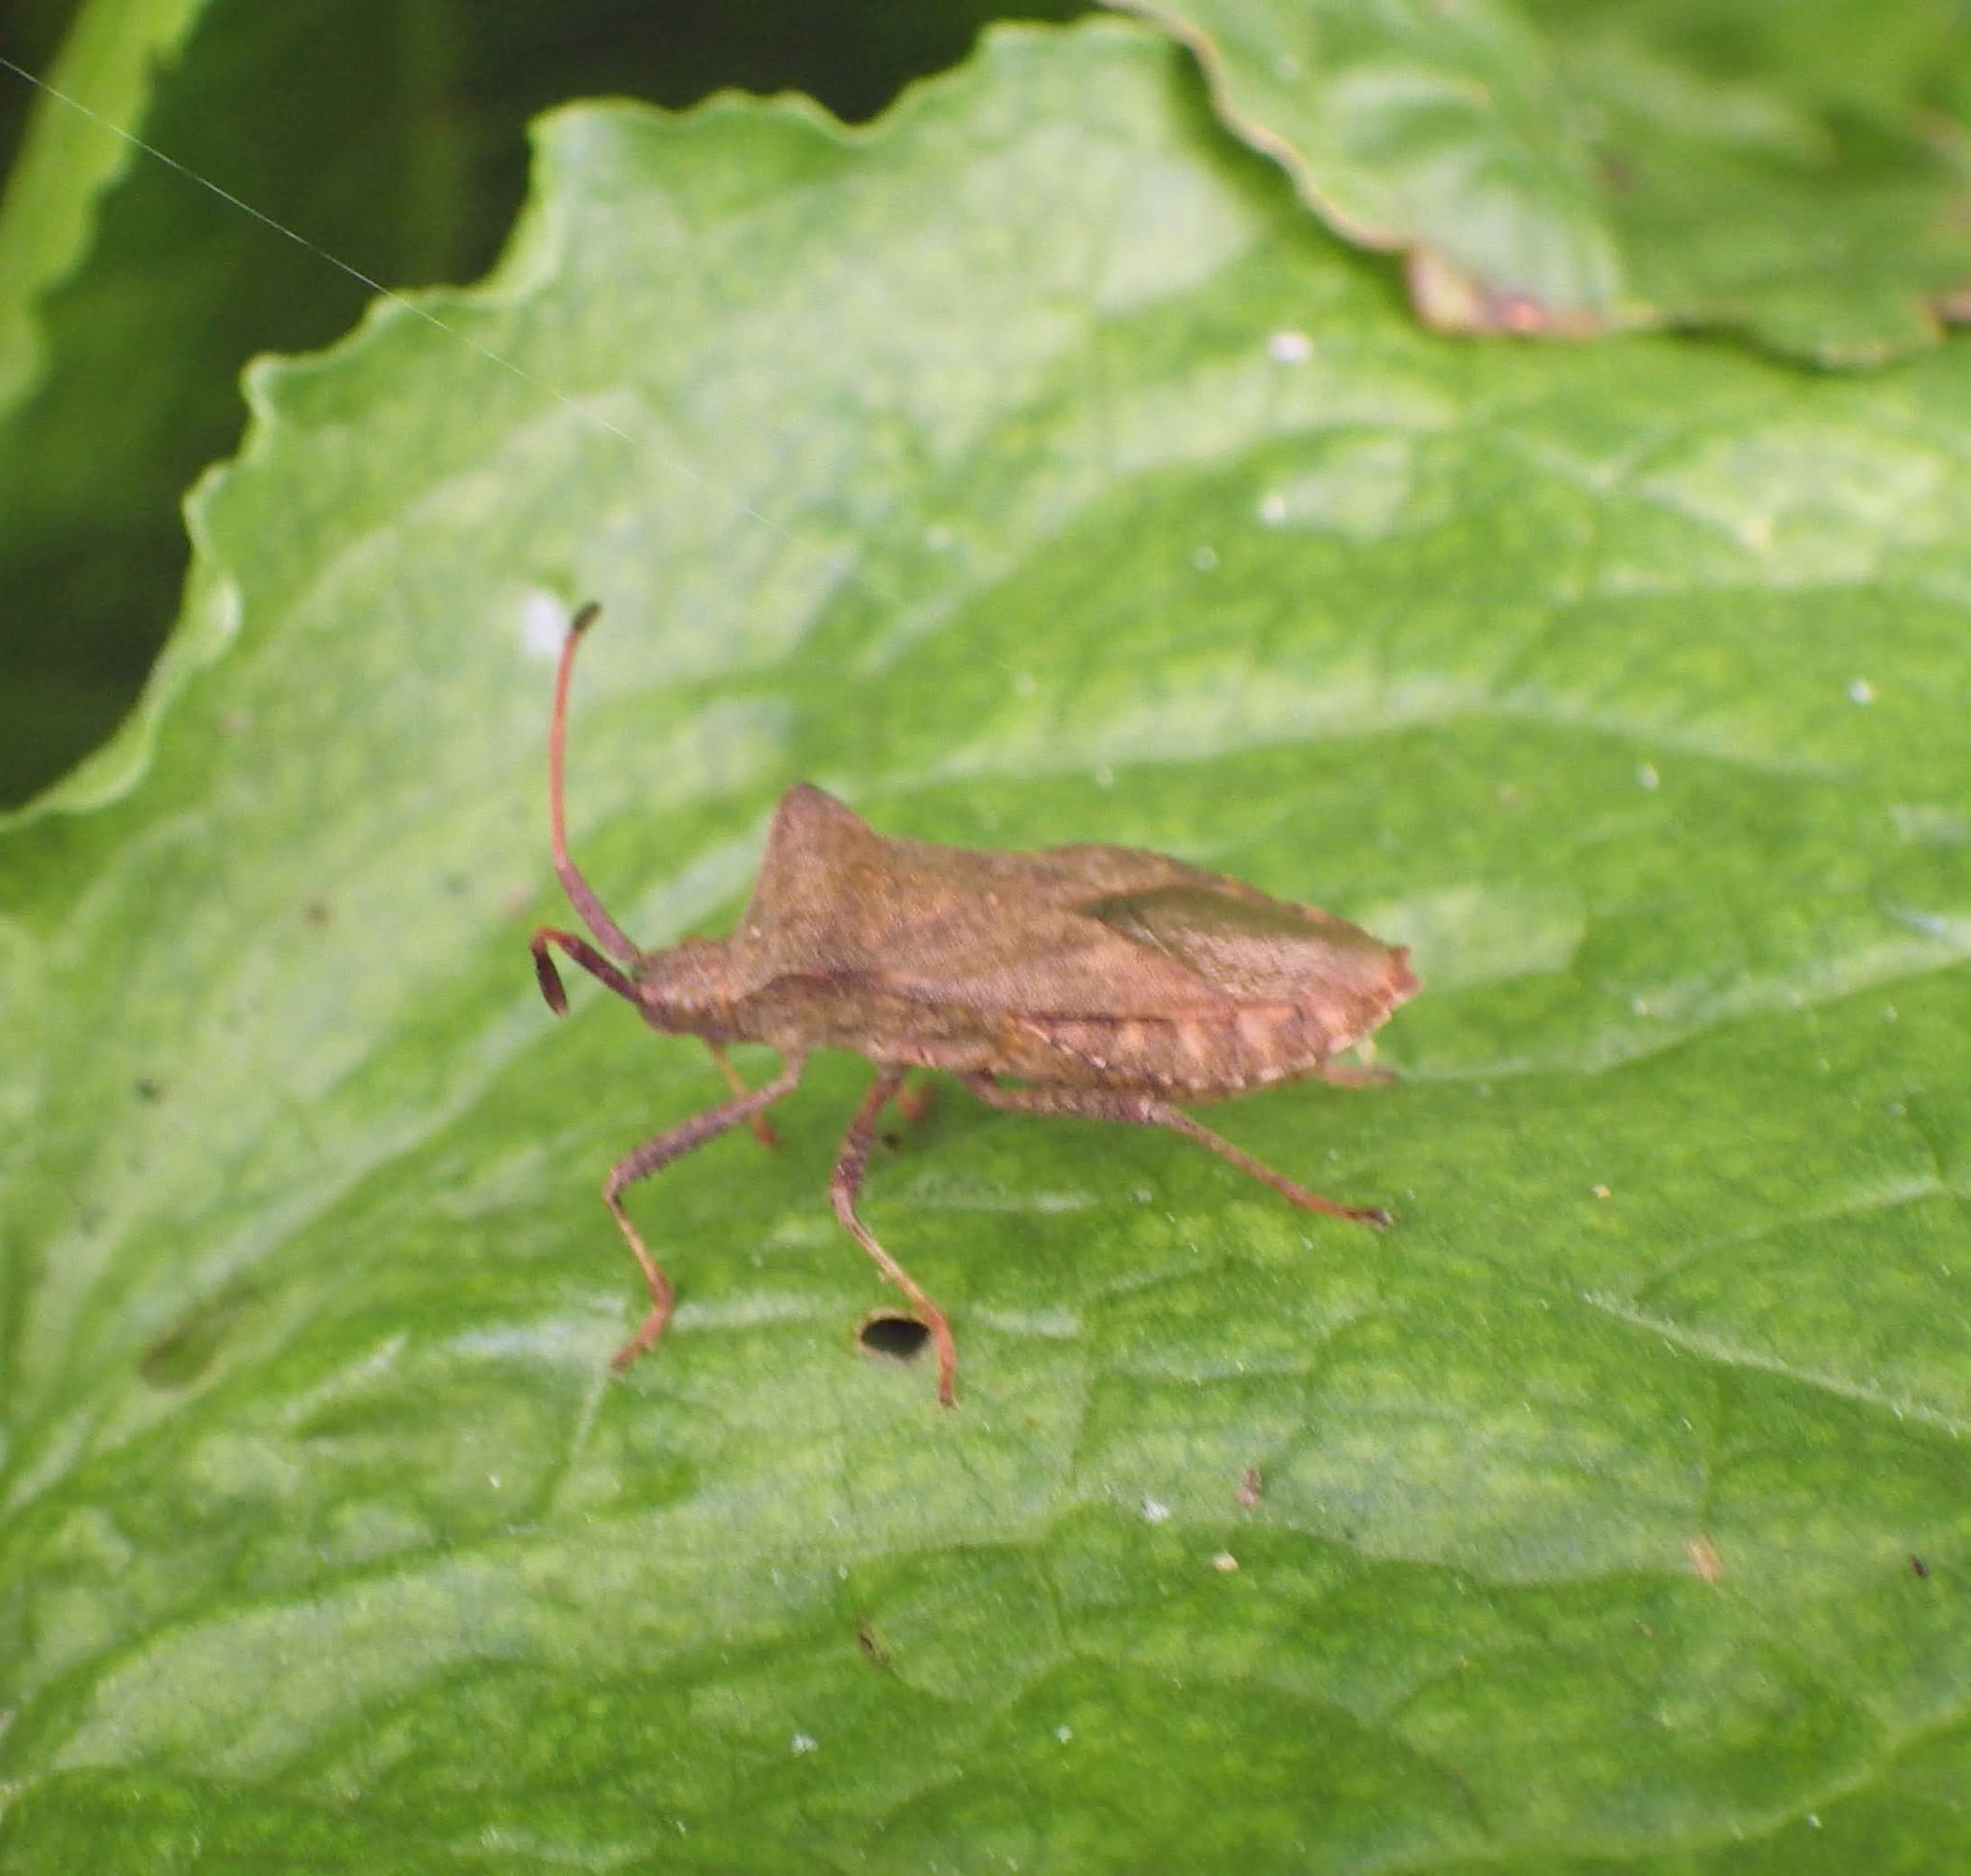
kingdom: Animalia
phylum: Arthropoda
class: Insecta
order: Hemiptera
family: Coreidae
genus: Coreus
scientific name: Coreus marginatus
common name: Dock bug
